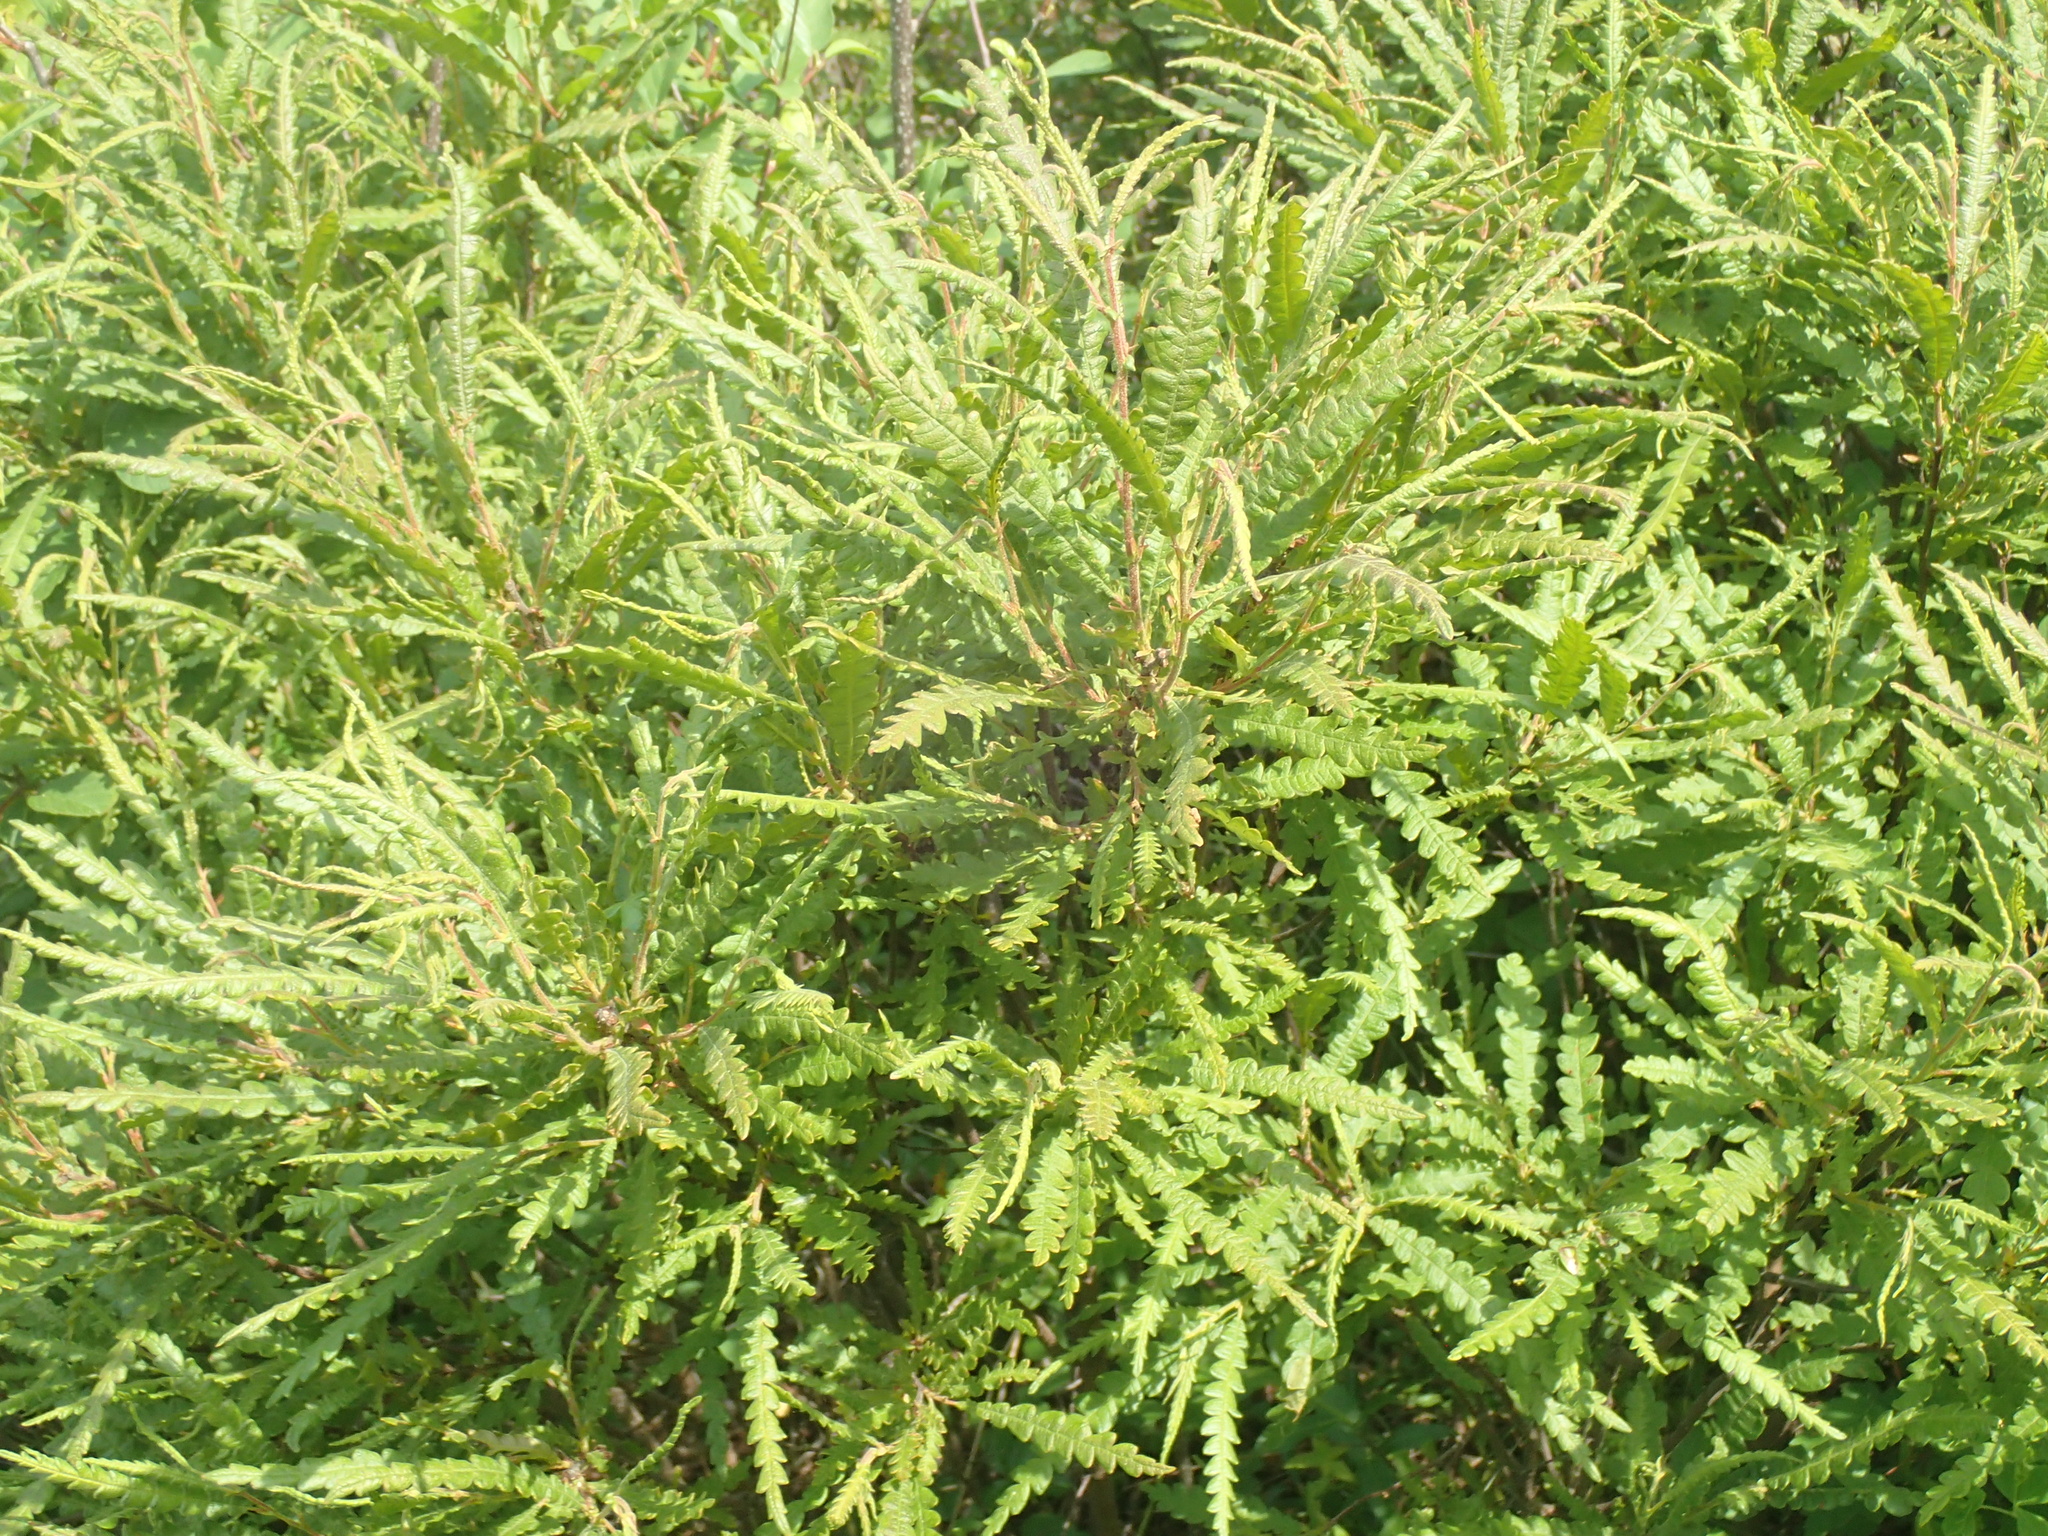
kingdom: Plantae
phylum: Tracheophyta
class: Magnoliopsida
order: Fagales
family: Myricaceae
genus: Comptonia
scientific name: Comptonia peregrina
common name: Sweet-fern
